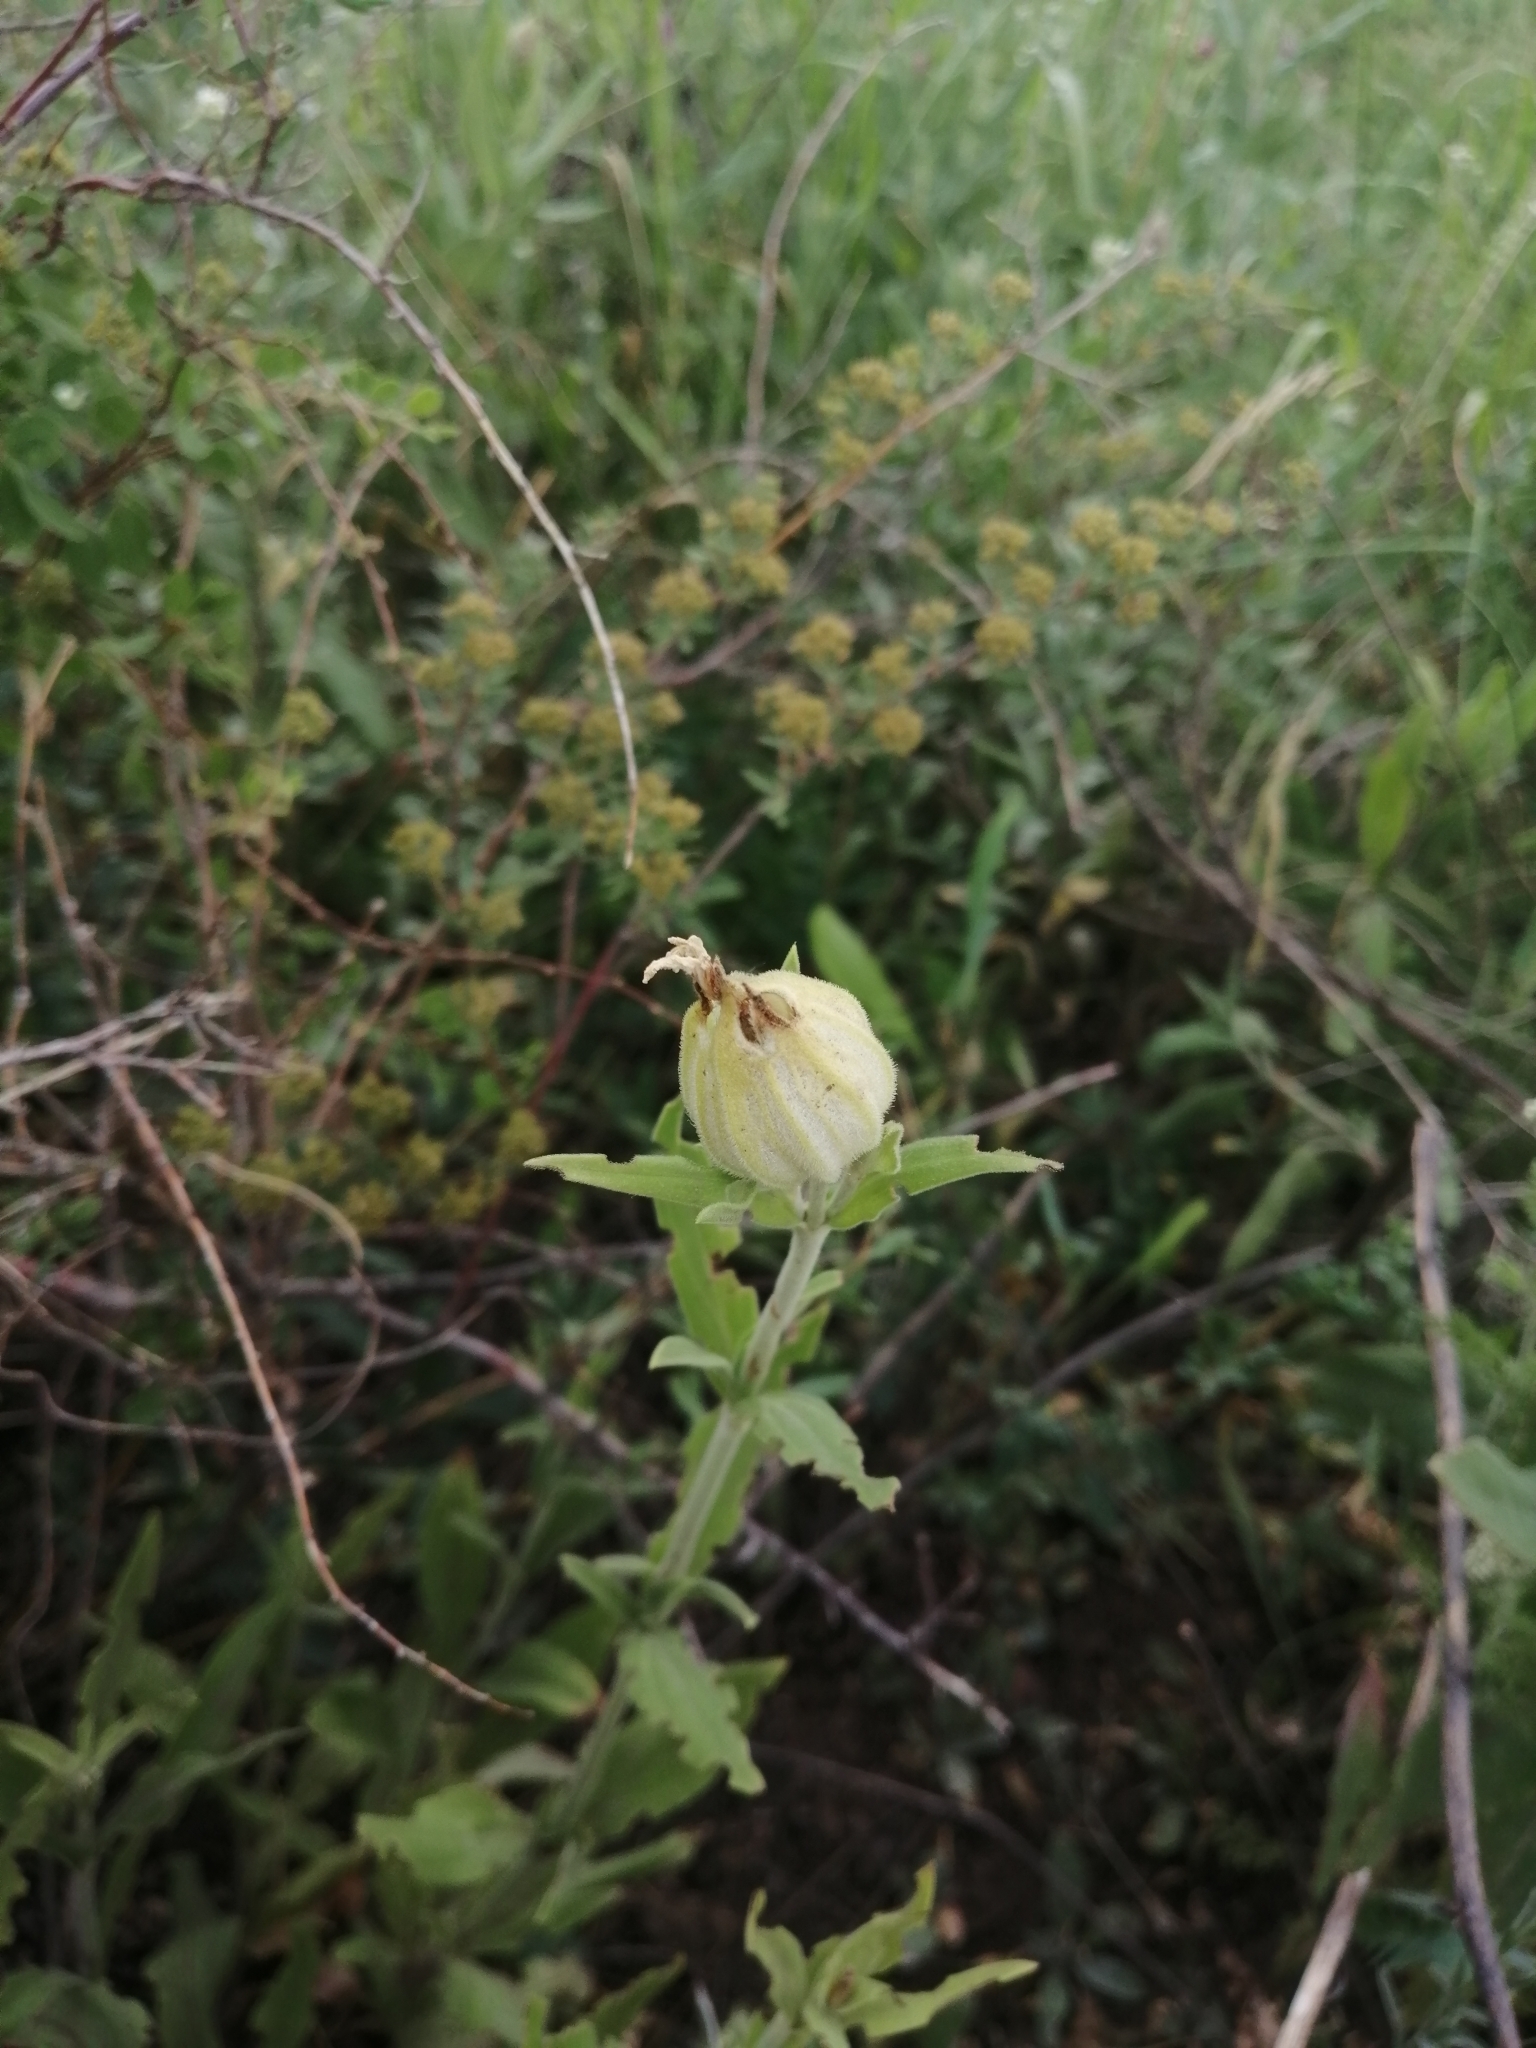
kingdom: Plantae
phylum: Tracheophyta
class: Magnoliopsida
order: Caryophyllales
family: Caryophyllaceae
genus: Silene
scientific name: Silene latifolia
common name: White campion
